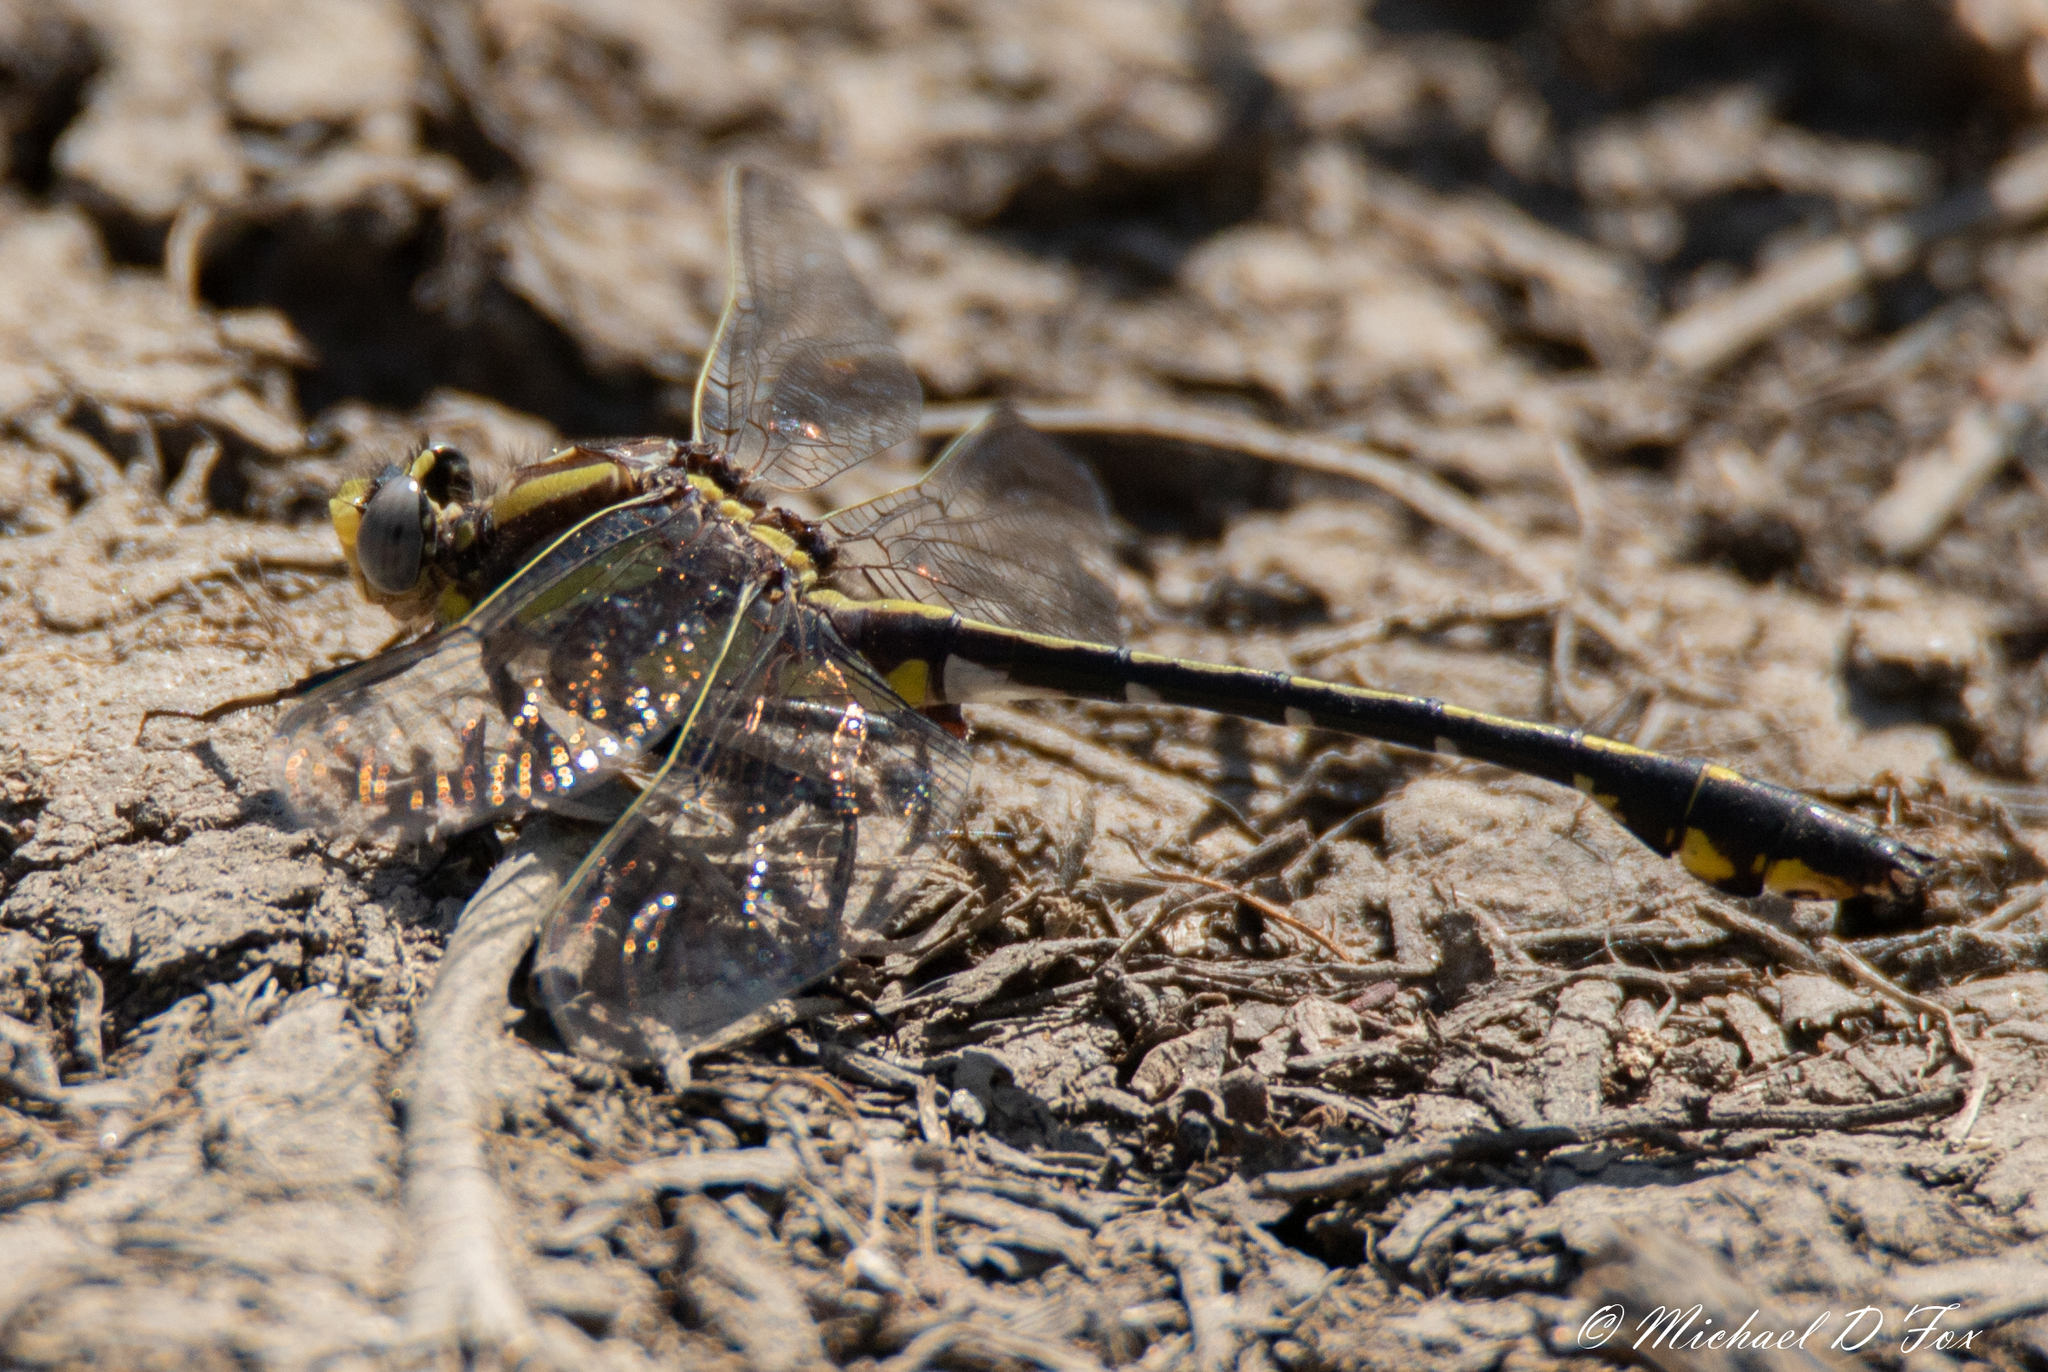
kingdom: Animalia
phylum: Arthropoda
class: Insecta
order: Odonata
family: Gomphidae
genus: Gomphurus
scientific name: Gomphurus externus
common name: Plains clubtail
